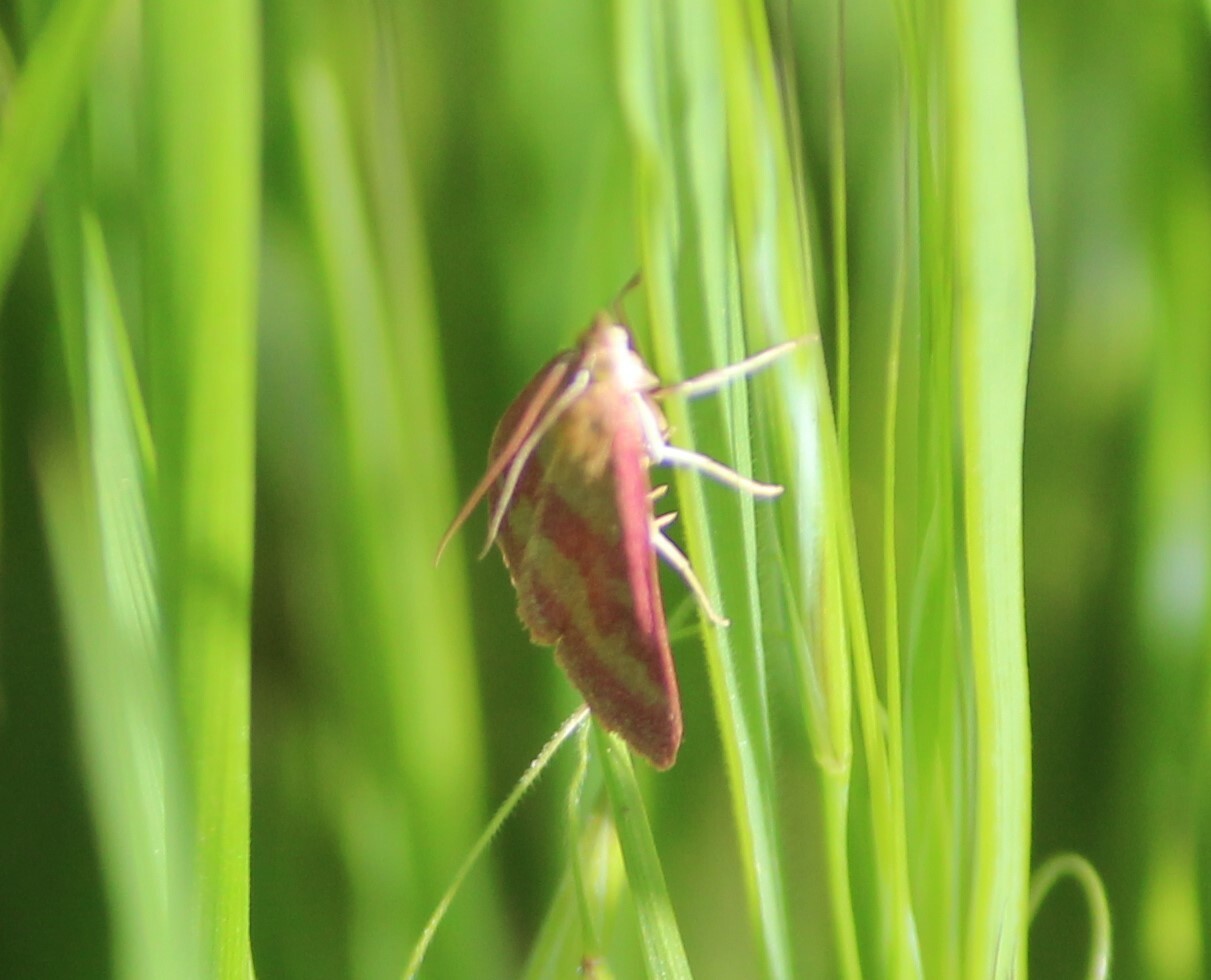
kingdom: Animalia
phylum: Arthropoda
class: Insecta
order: Lepidoptera
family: Crambidae
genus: Pyrausta
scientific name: Pyrausta laticlavia
